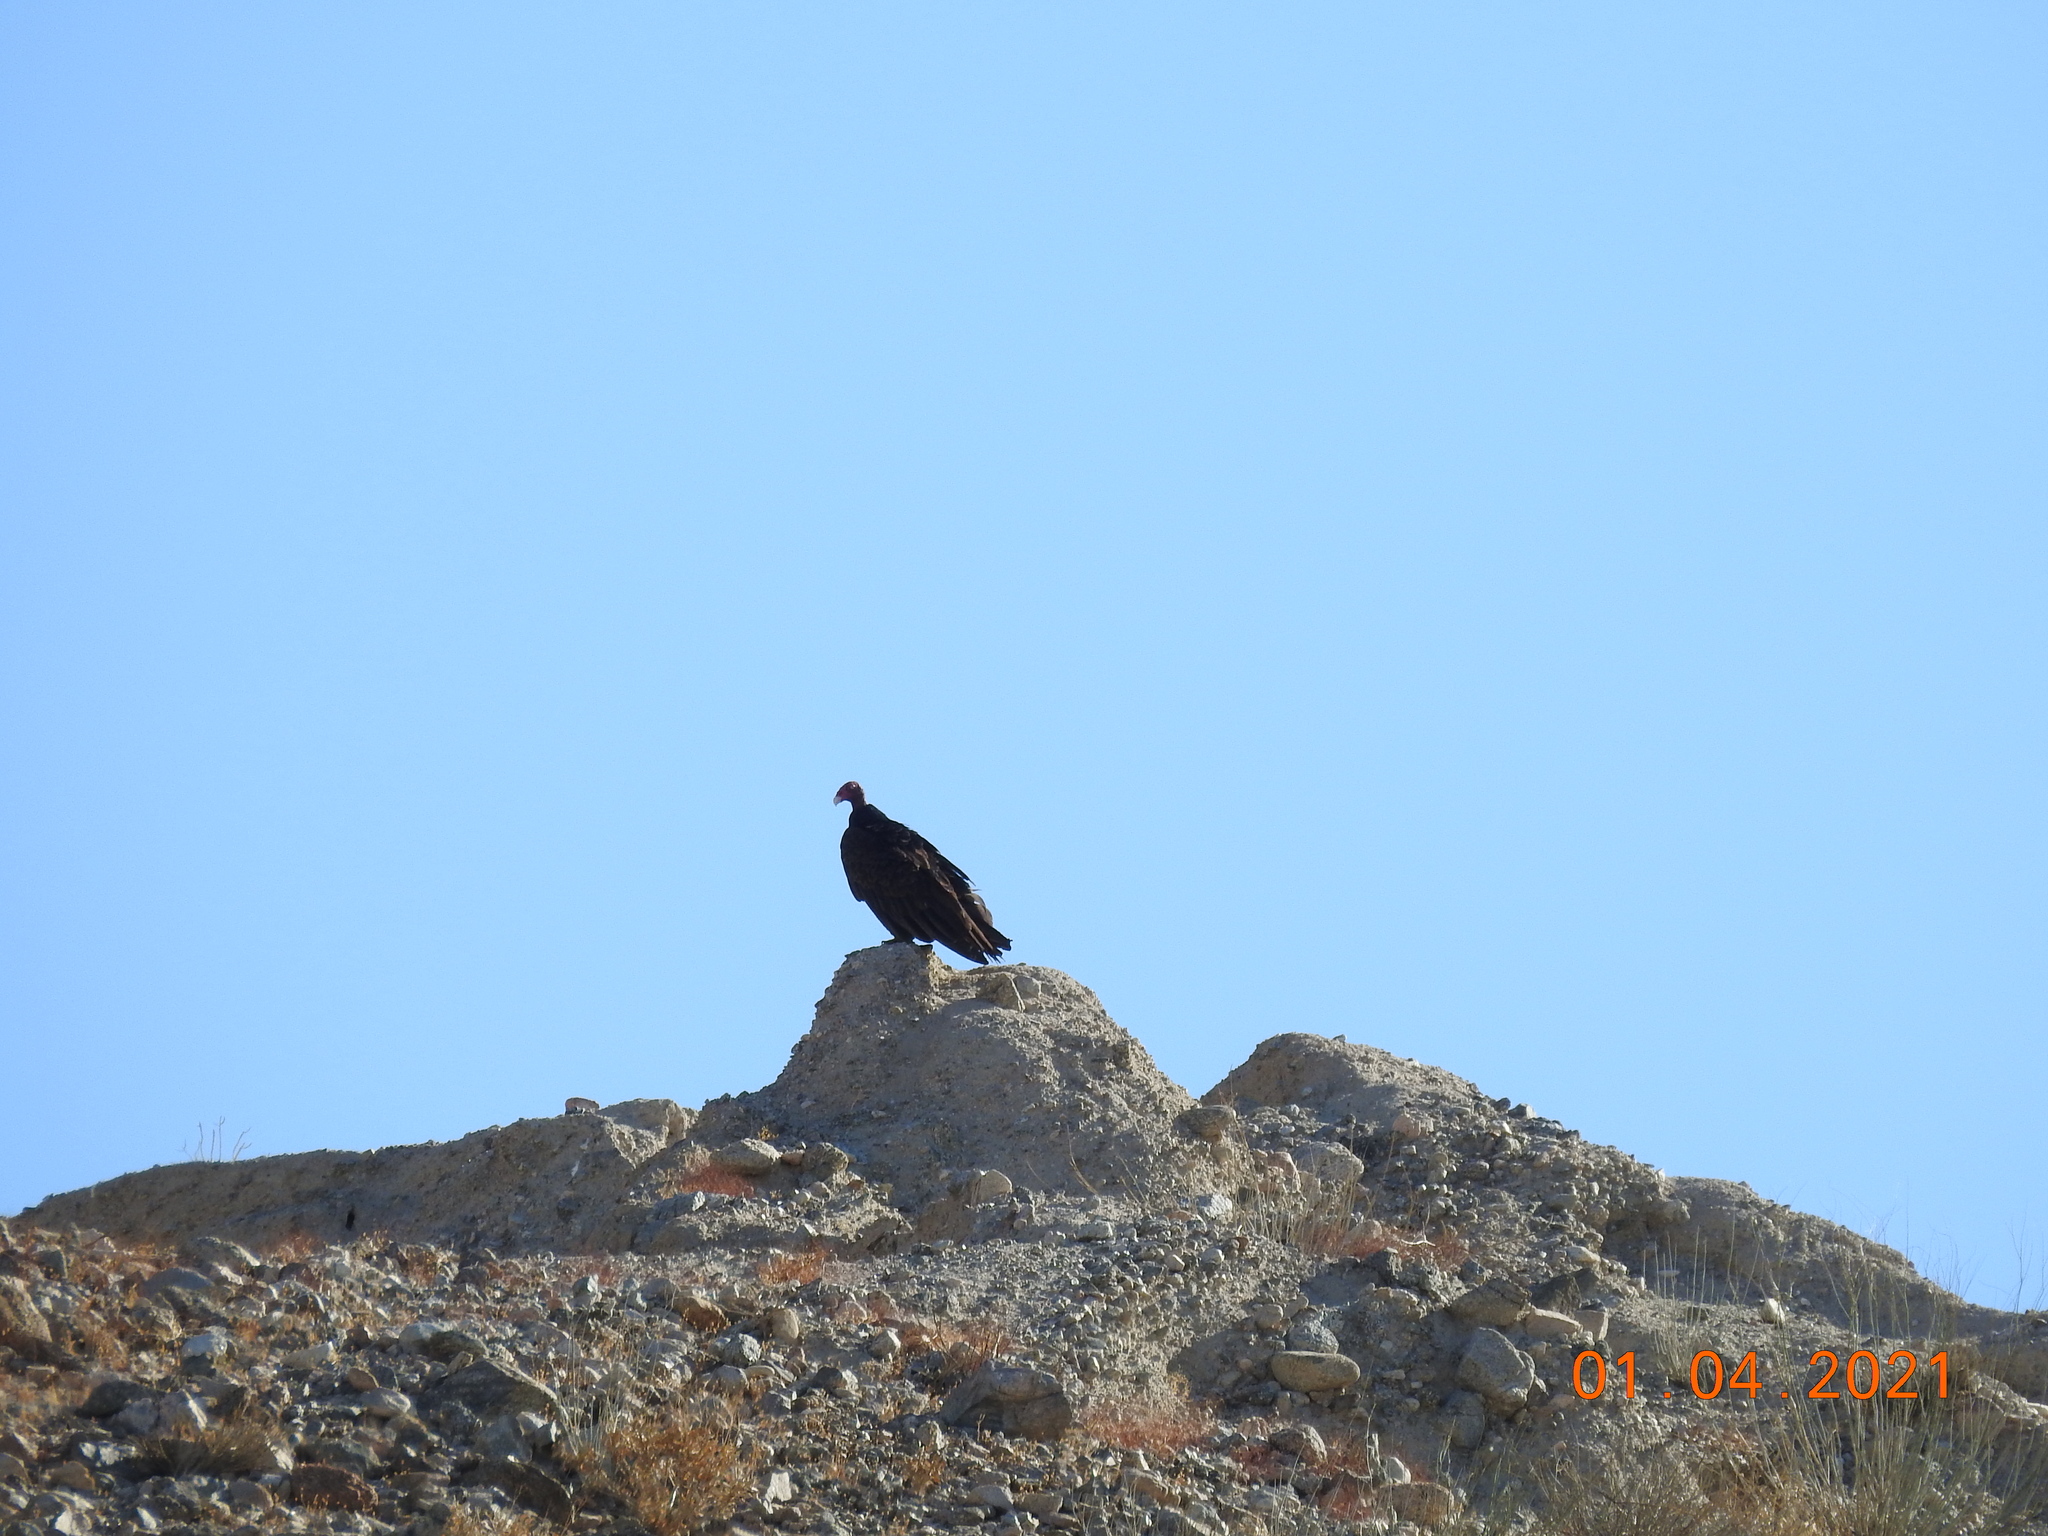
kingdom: Animalia
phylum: Chordata
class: Aves
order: Accipitriformes
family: Cathartidae
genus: Cathartes
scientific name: Cathartes aura
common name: Turkey vulture
